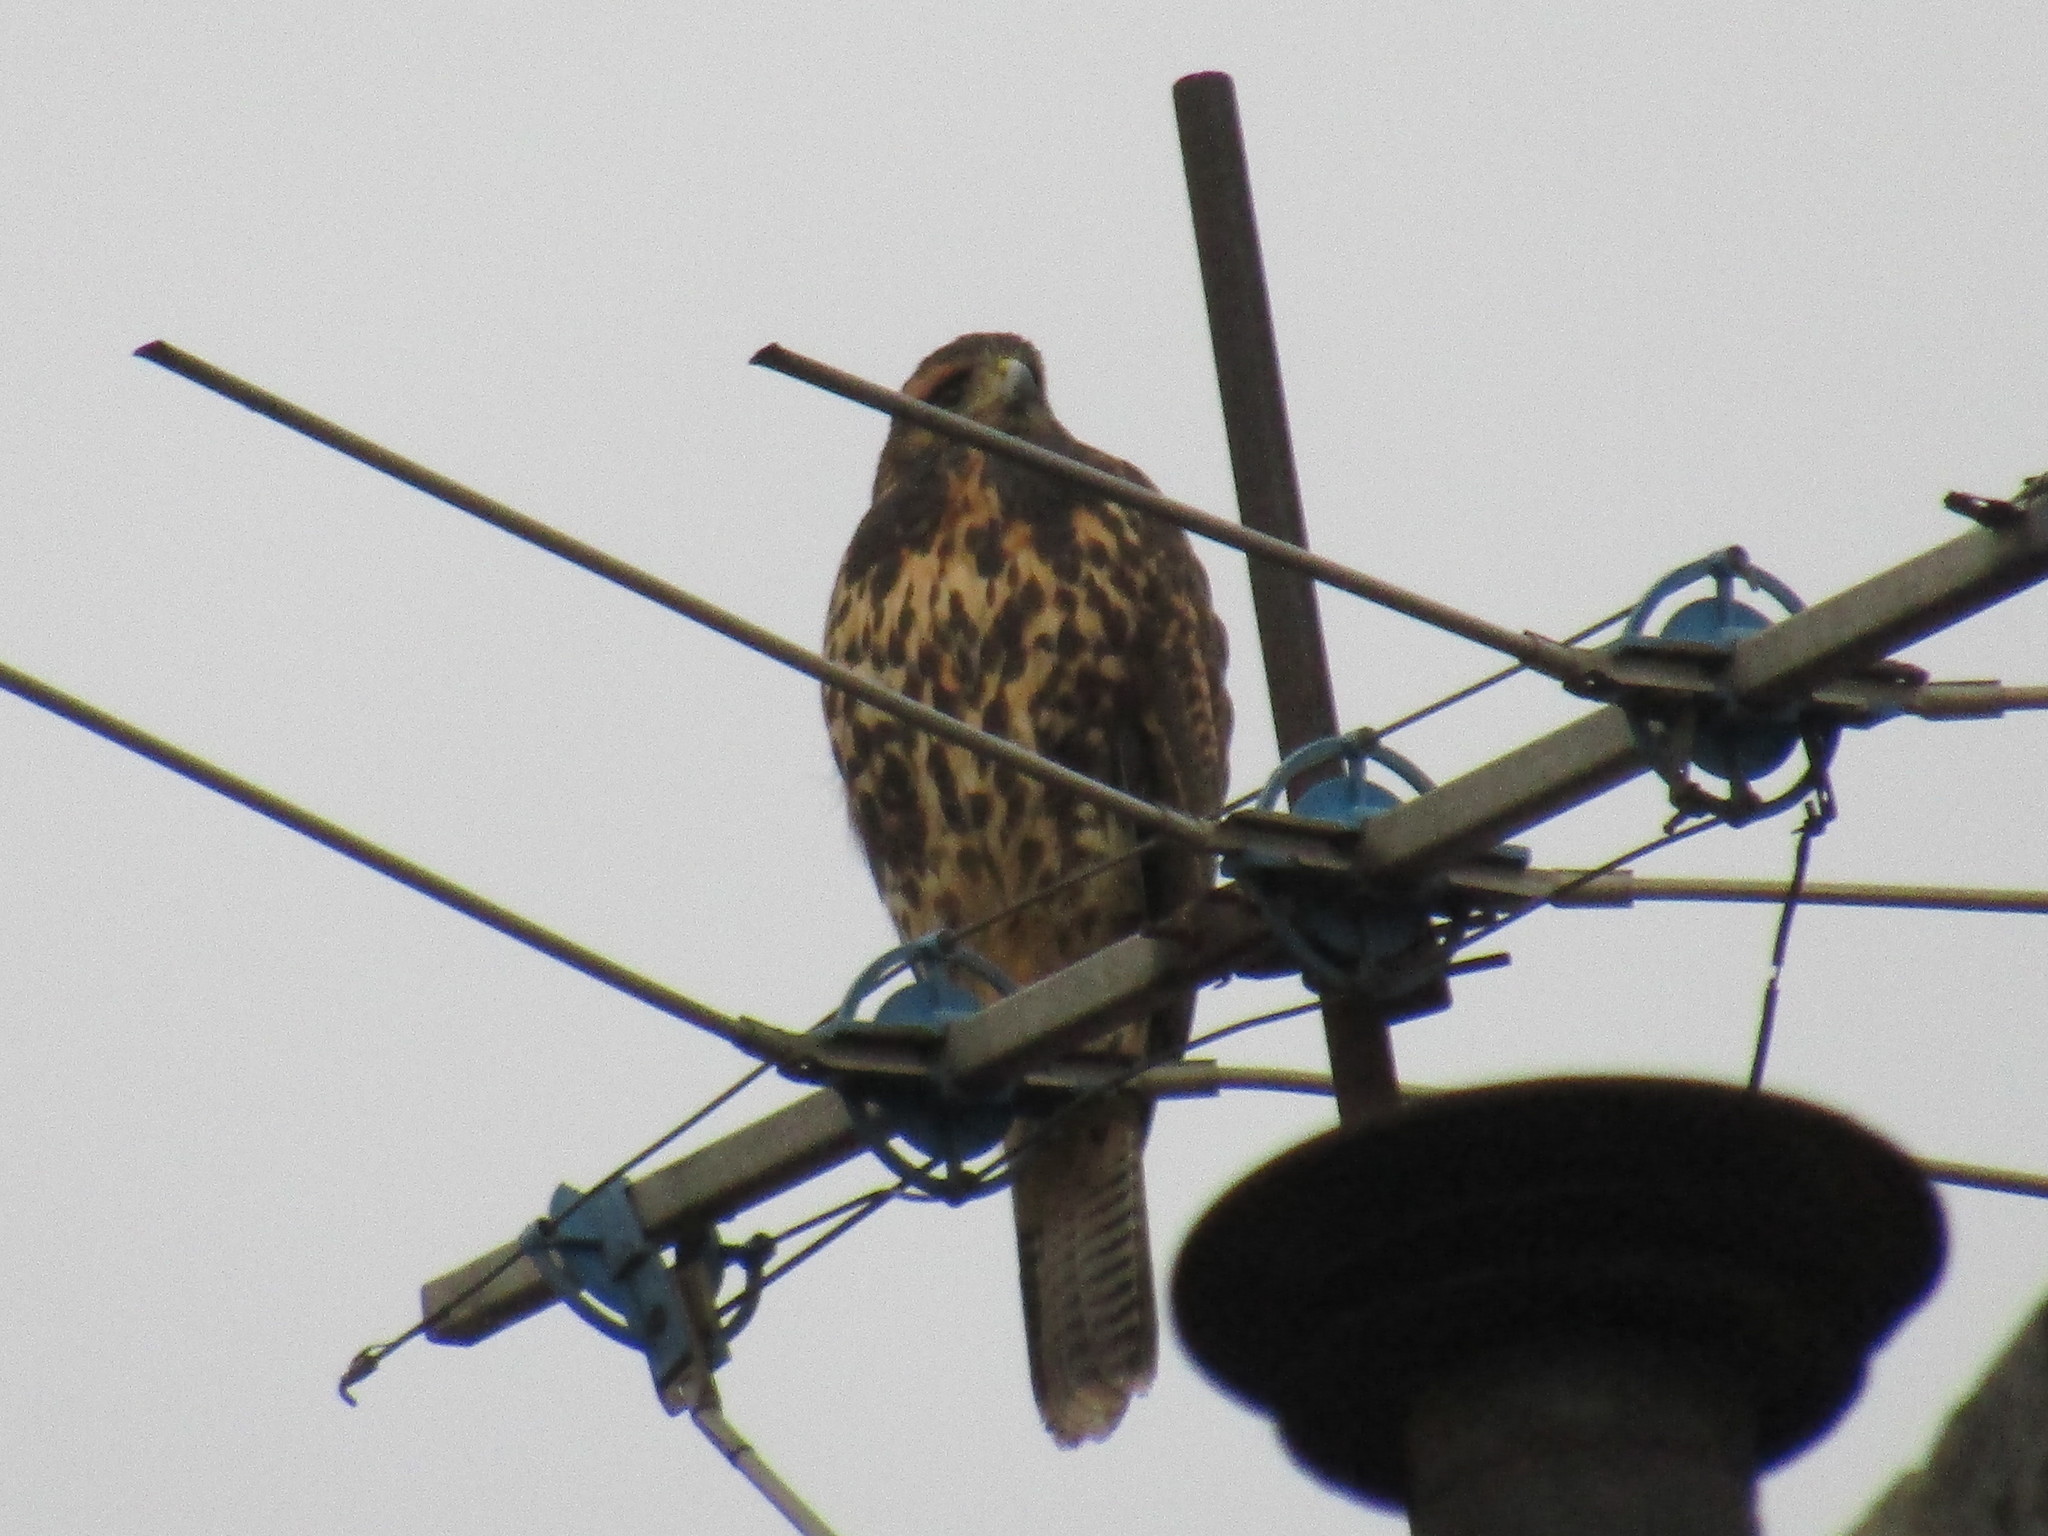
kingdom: Animalia
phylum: Chordata
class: Aves
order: Accipitriformes
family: Accipitridae
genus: Parabuteo
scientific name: Parabuteo unicinctus
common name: Harris's hawk
